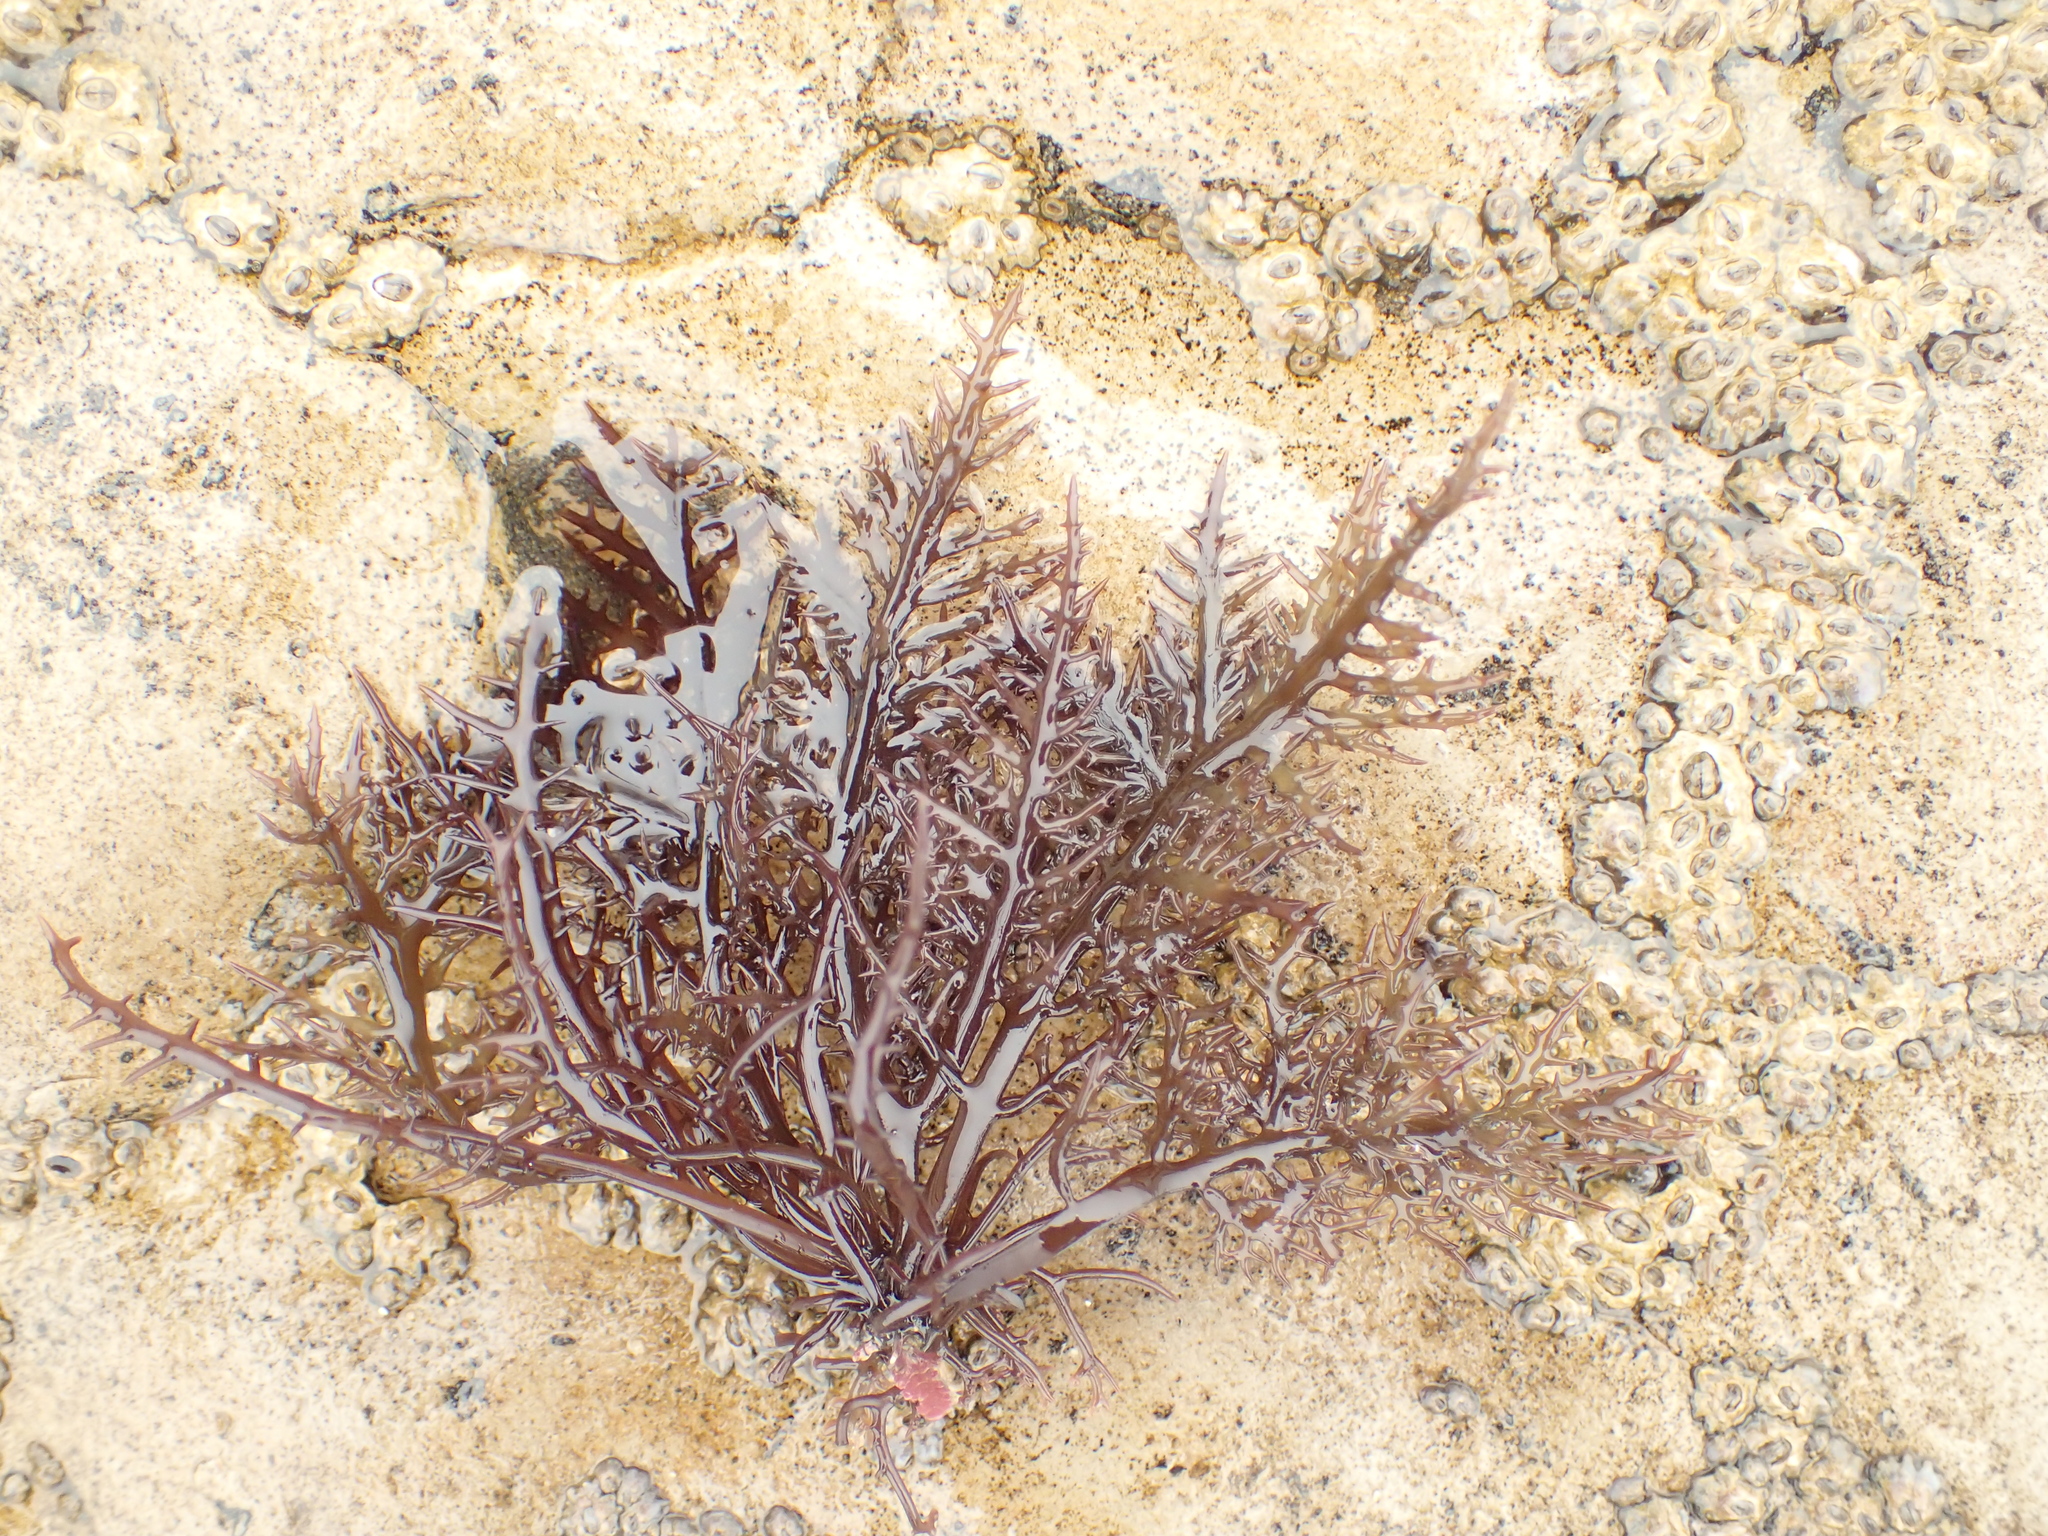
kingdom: Plantae
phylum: Rhodophyta
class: Florideophyceae
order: Gigartinales
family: Gigartinaceae
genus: Chondracanthus
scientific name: Chondracanthus canaliculatus
